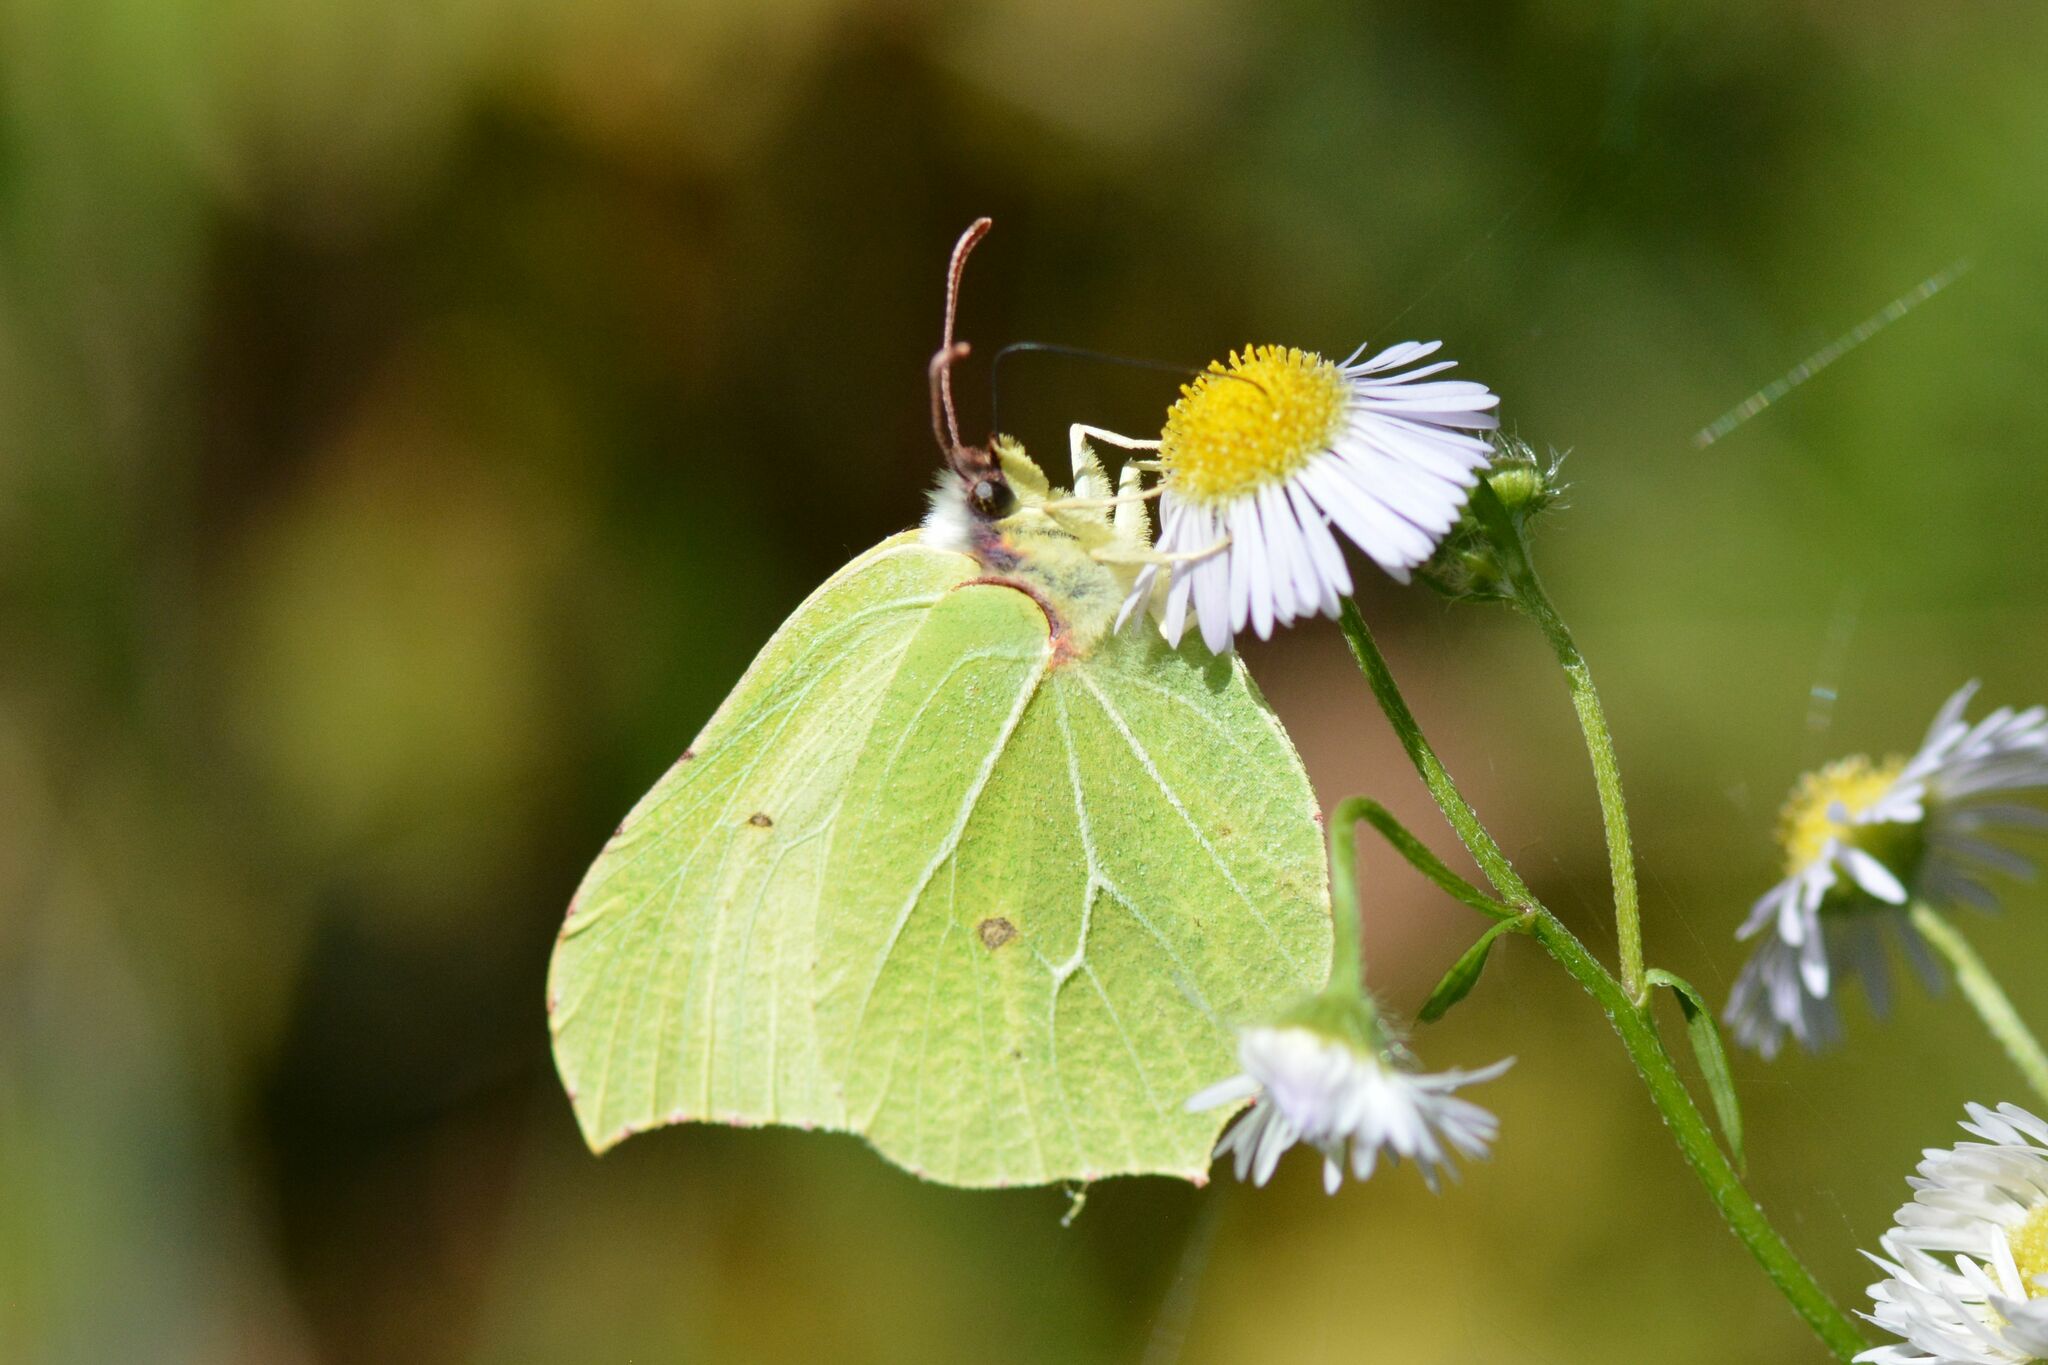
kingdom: Animalia
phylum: Arthropoda
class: Insecta
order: Lepidoptera
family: Pieridae
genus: Gonepteryx
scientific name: Gonepteryx rhamni
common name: Brimstone
